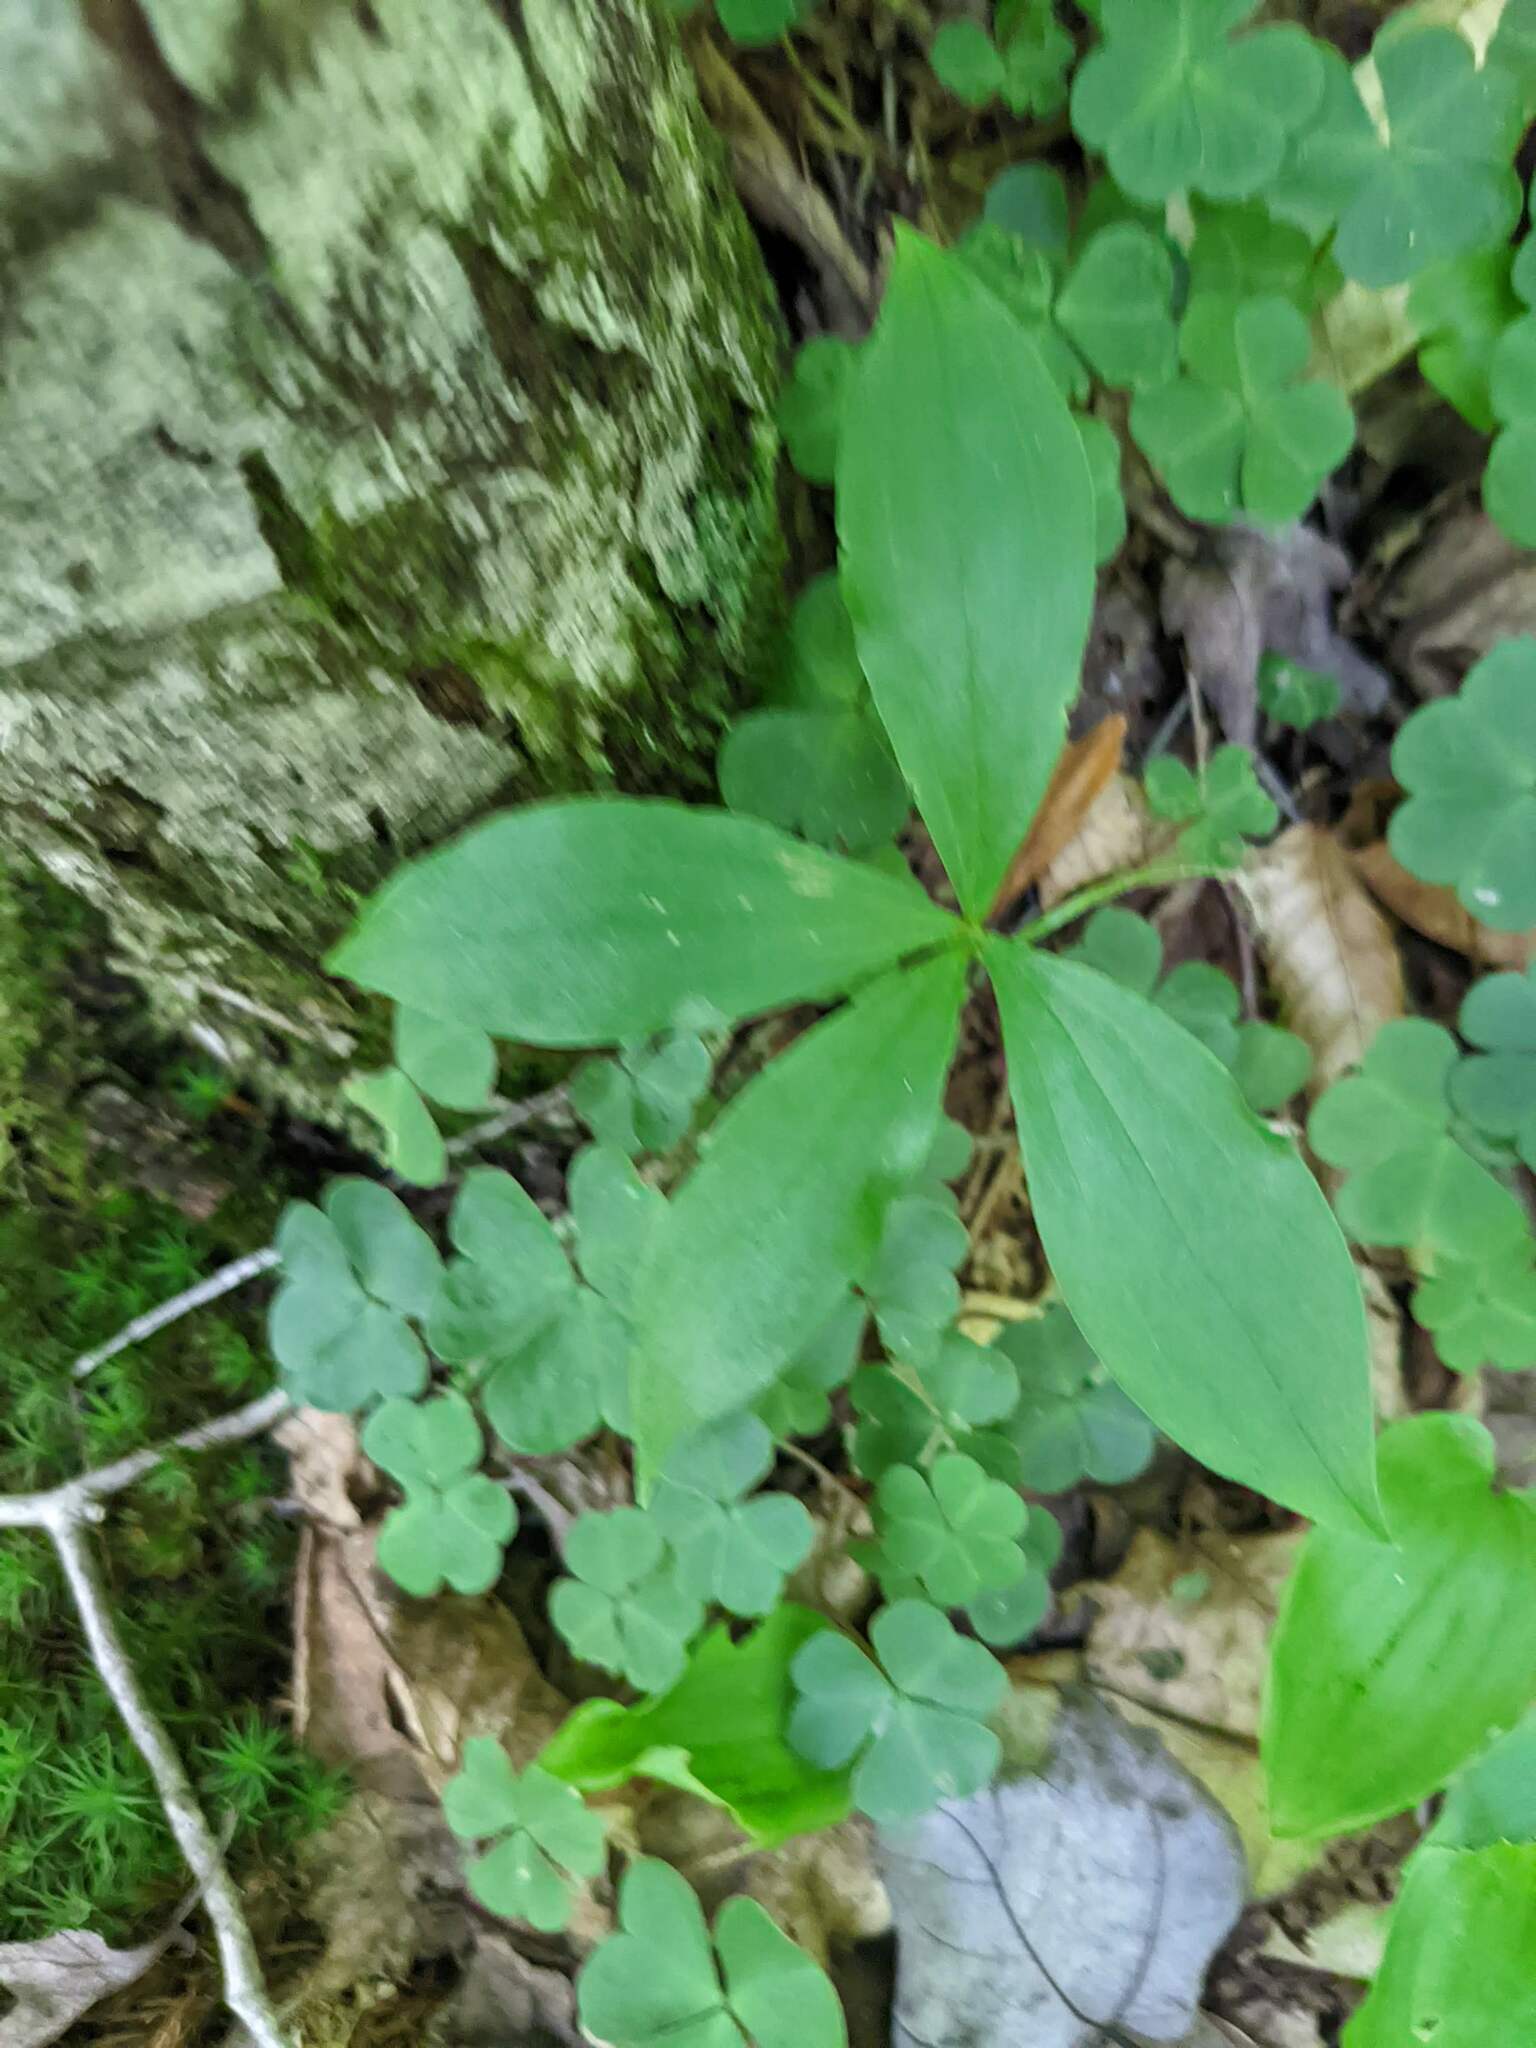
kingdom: Plantae
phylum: Tracheophyta
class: Liliopsida
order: Liliales
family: Liliaceae
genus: Medeola
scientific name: Medeola virginiana
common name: Indian cucumber-root
